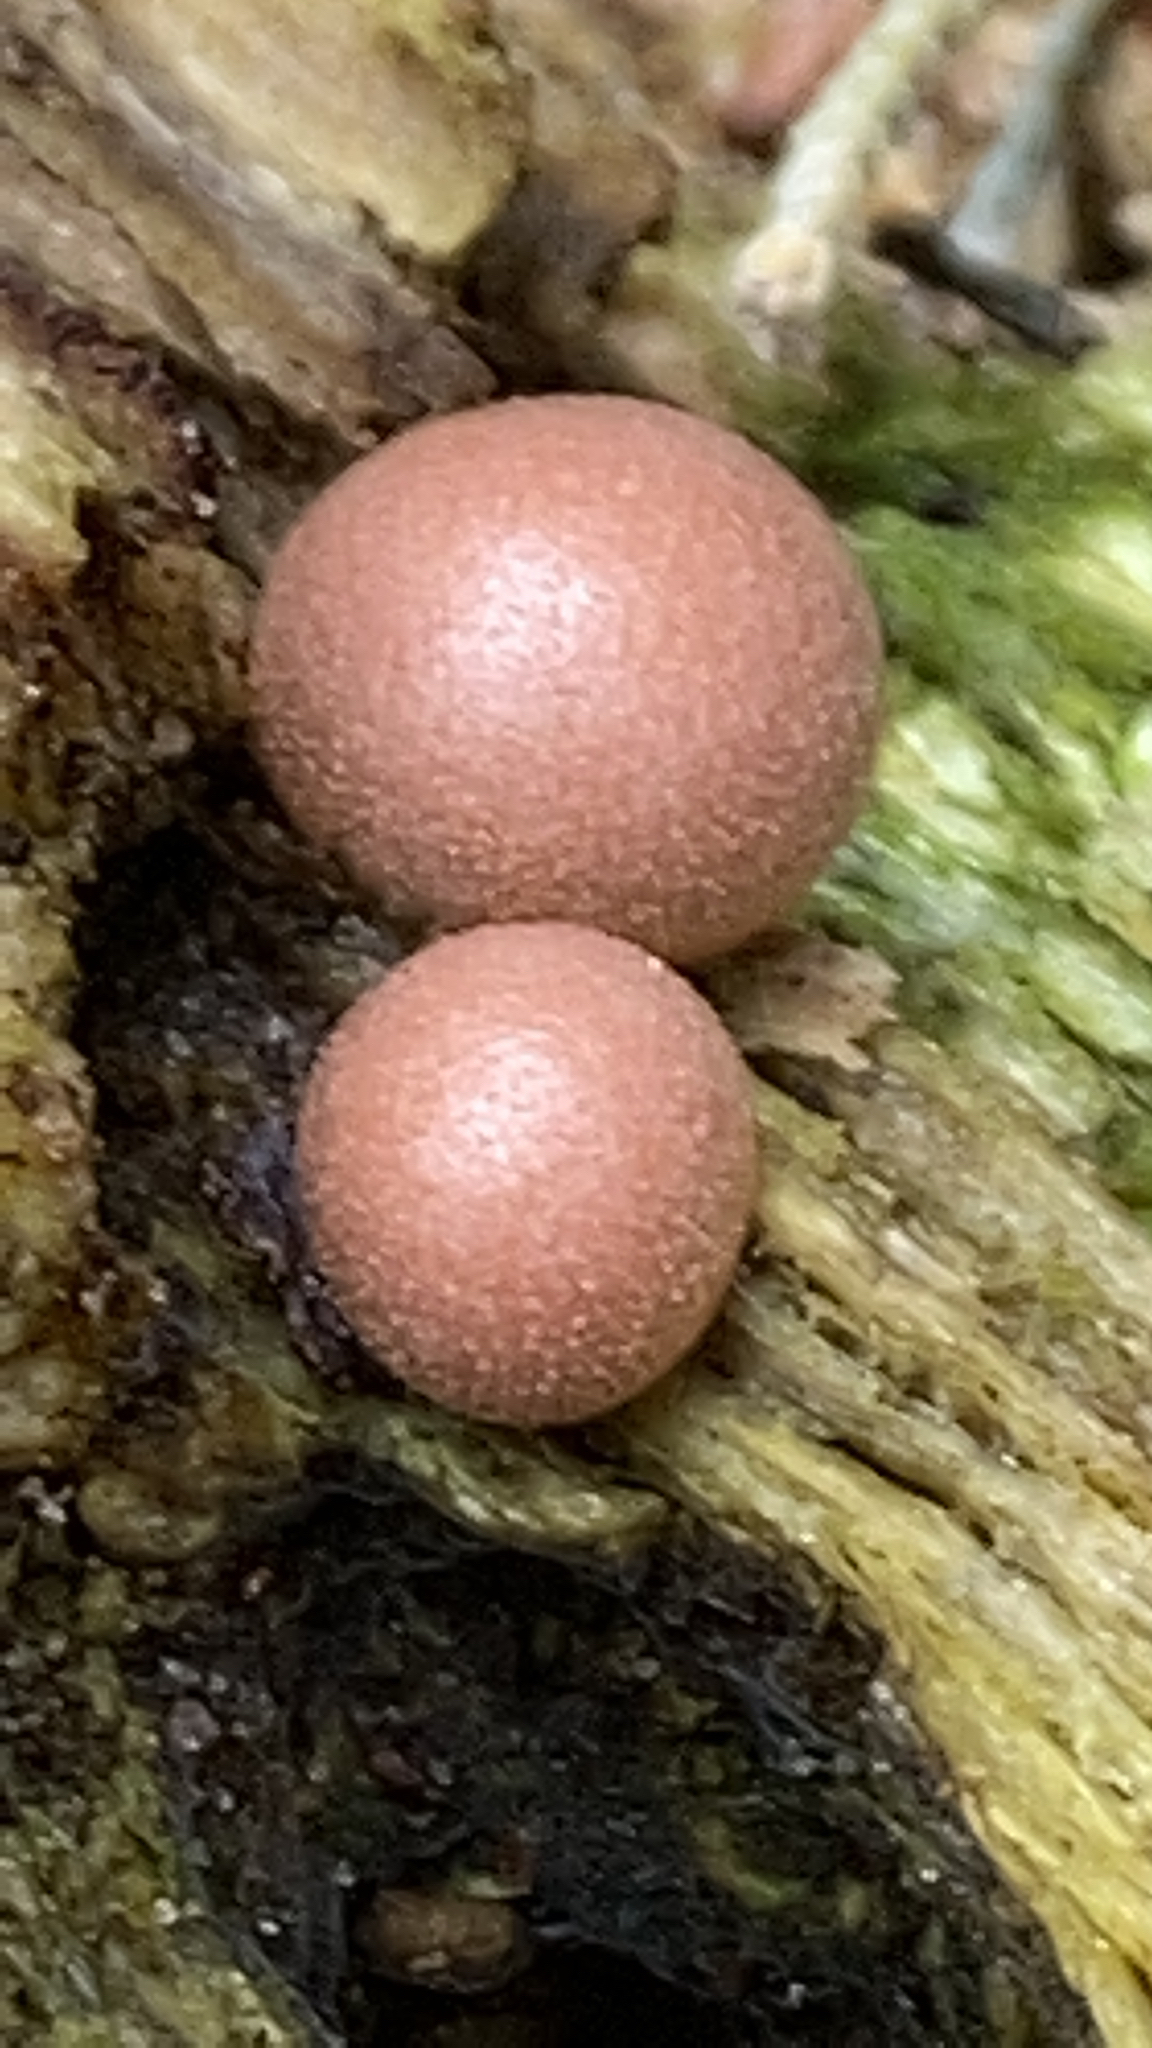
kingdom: Protozoa
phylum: Mycetozoa
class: Myxomycetes
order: Cribrariales
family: Tubiferaceae
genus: Lycogala
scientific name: Lycogala epidendrum
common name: Wolf's milk
